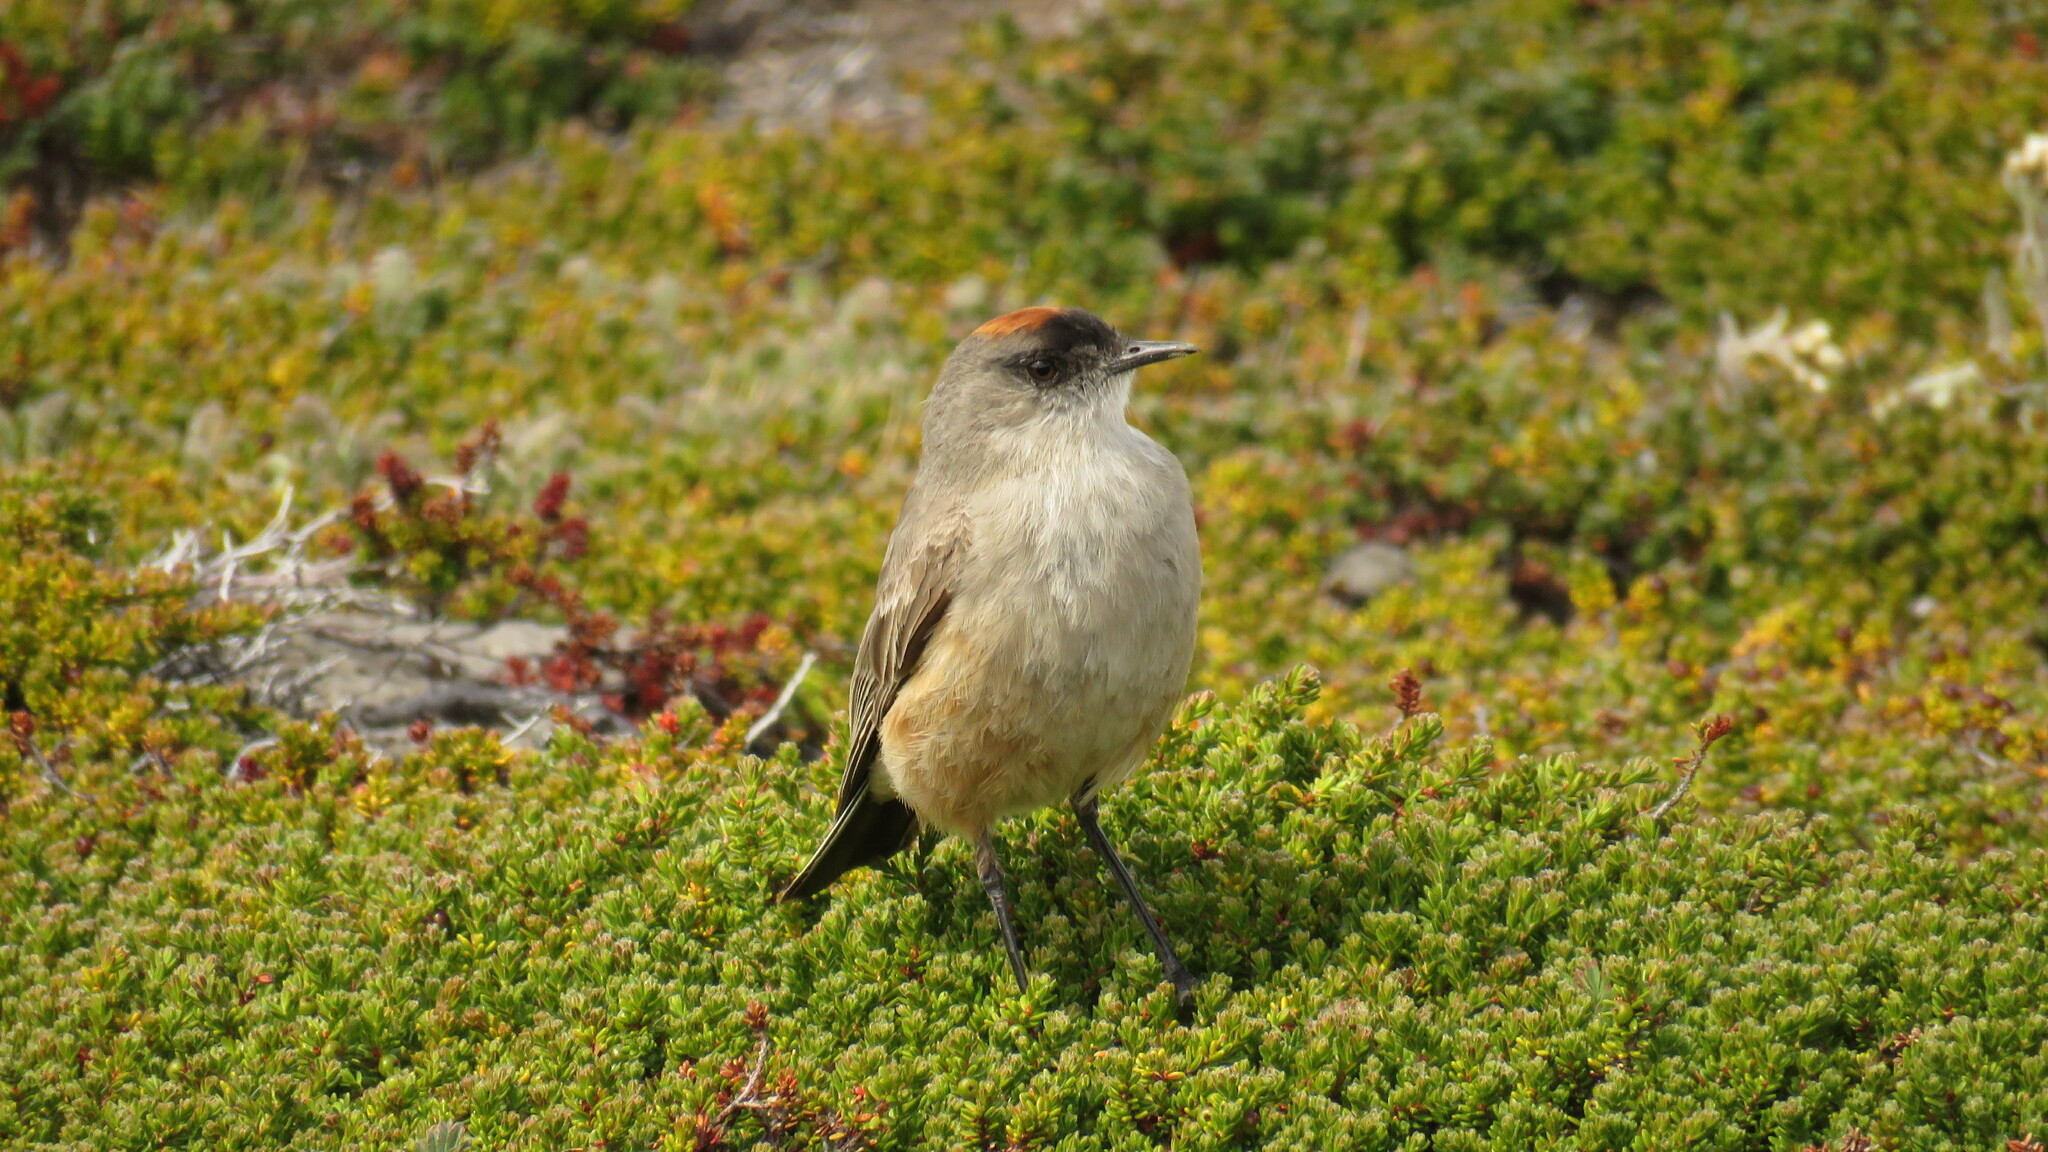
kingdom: Animalia
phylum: Chordata
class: Aves
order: Passeriformes
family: Tyrannidae
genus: Muscisaxicola
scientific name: Muscisaxicola capistratus
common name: Cinnamon-bellied ground tyrant
